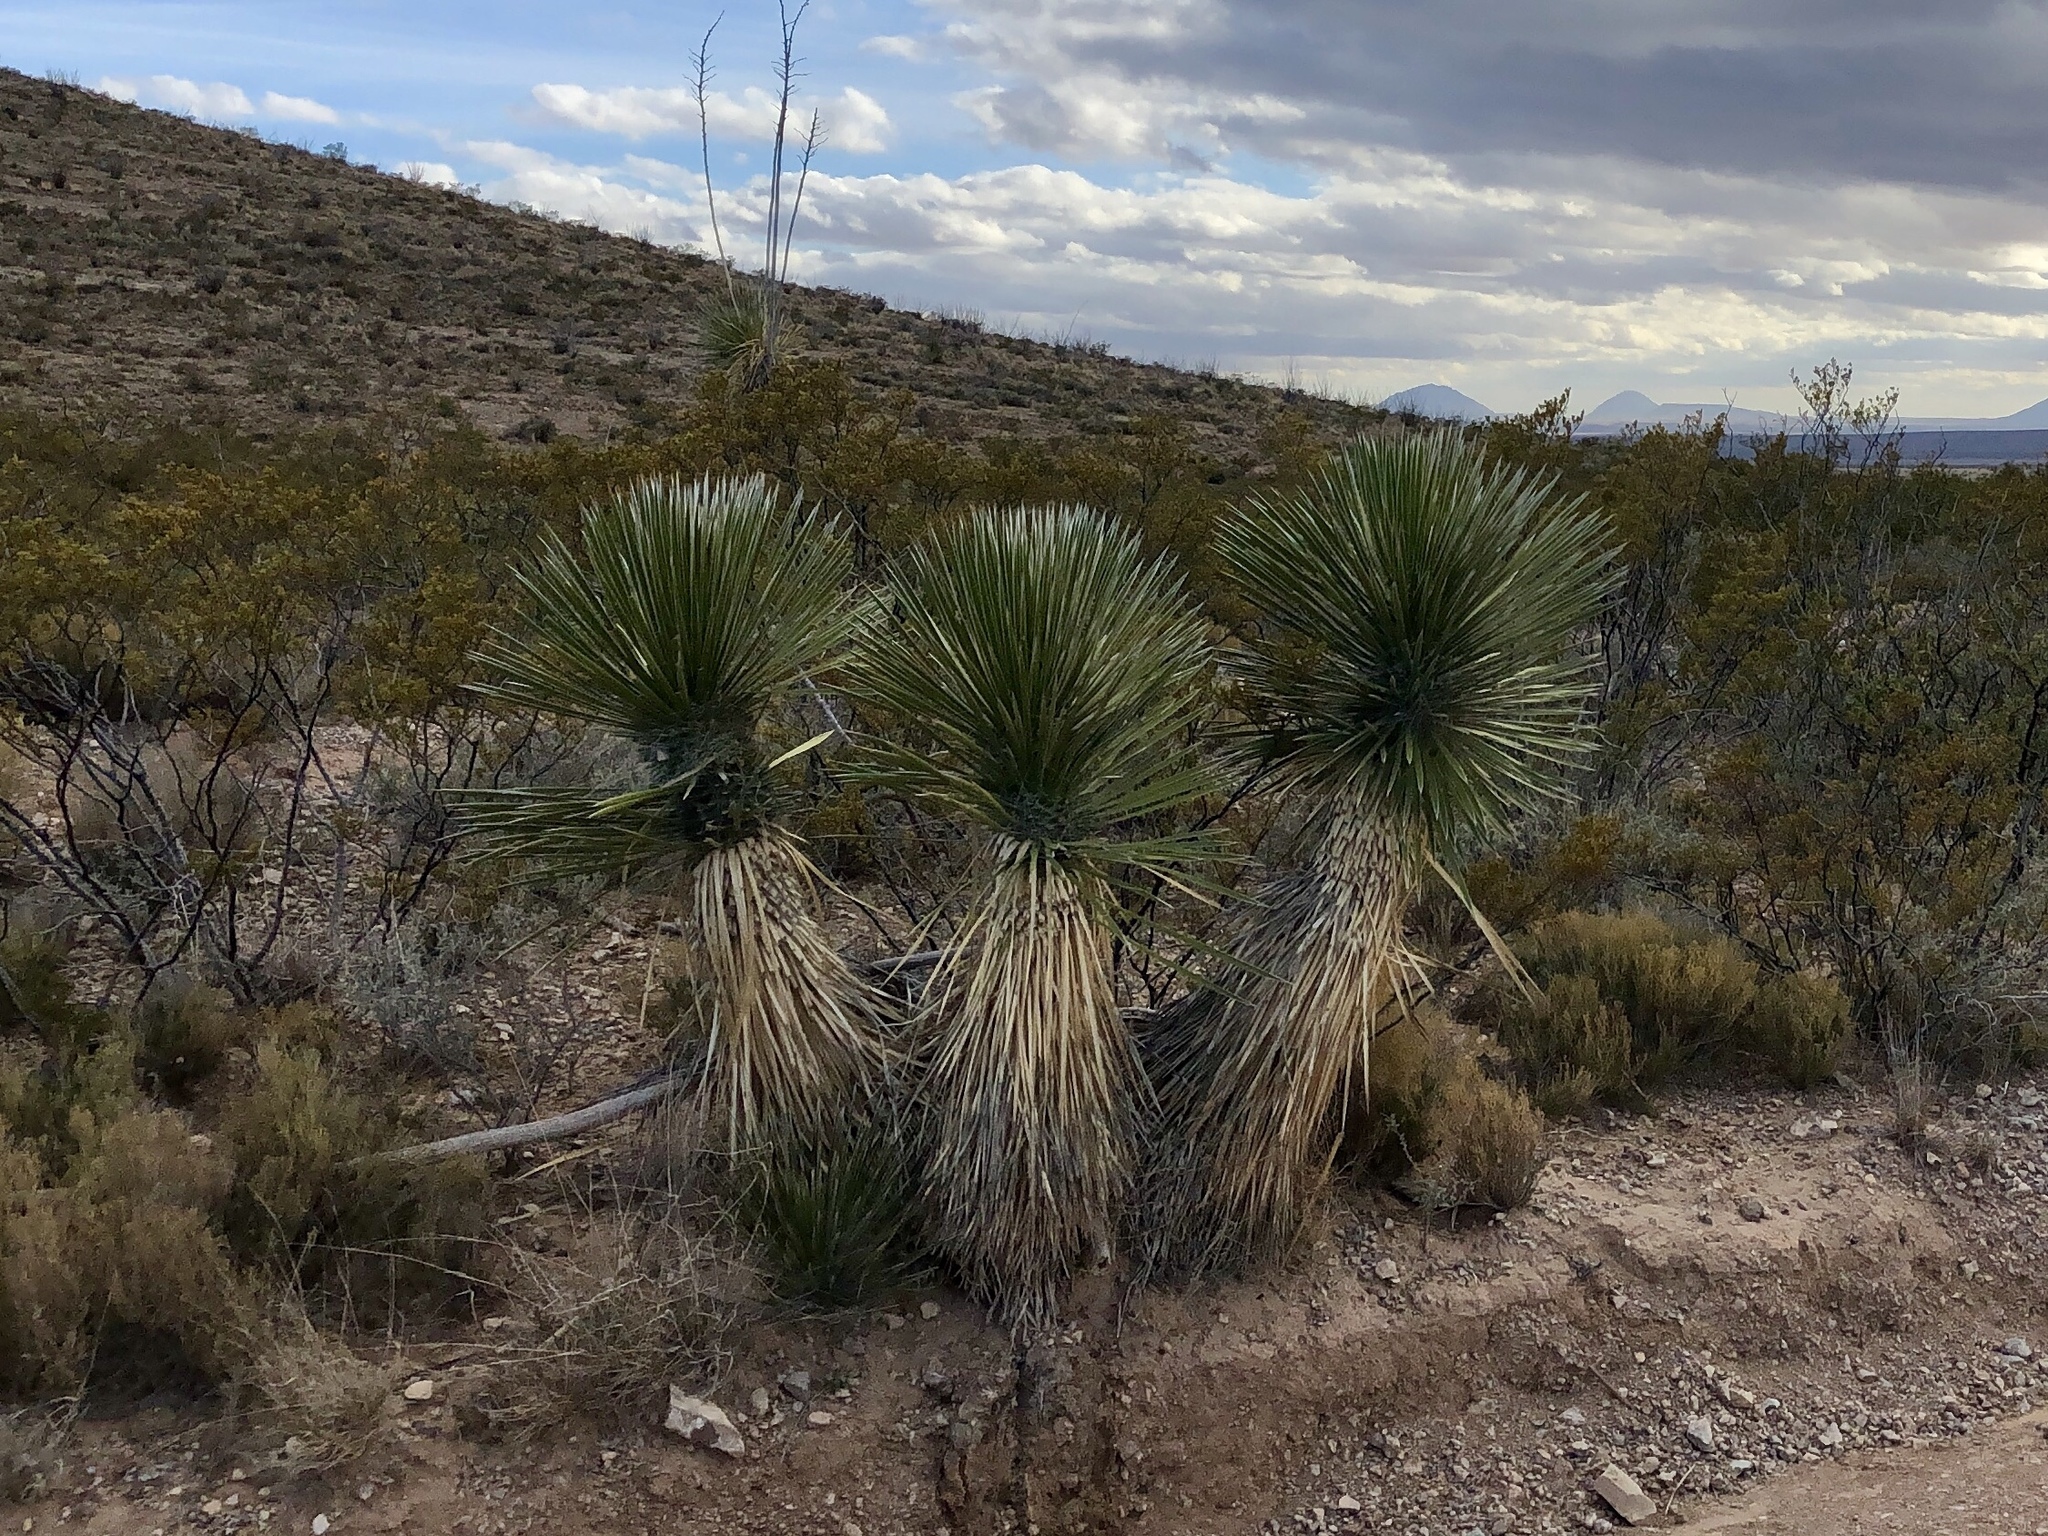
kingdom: Plantae
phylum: Tracheophyta
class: Liliopsida
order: Asparagales
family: Asparagaceae
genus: Yucca
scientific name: Yucca elata
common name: Palmella
